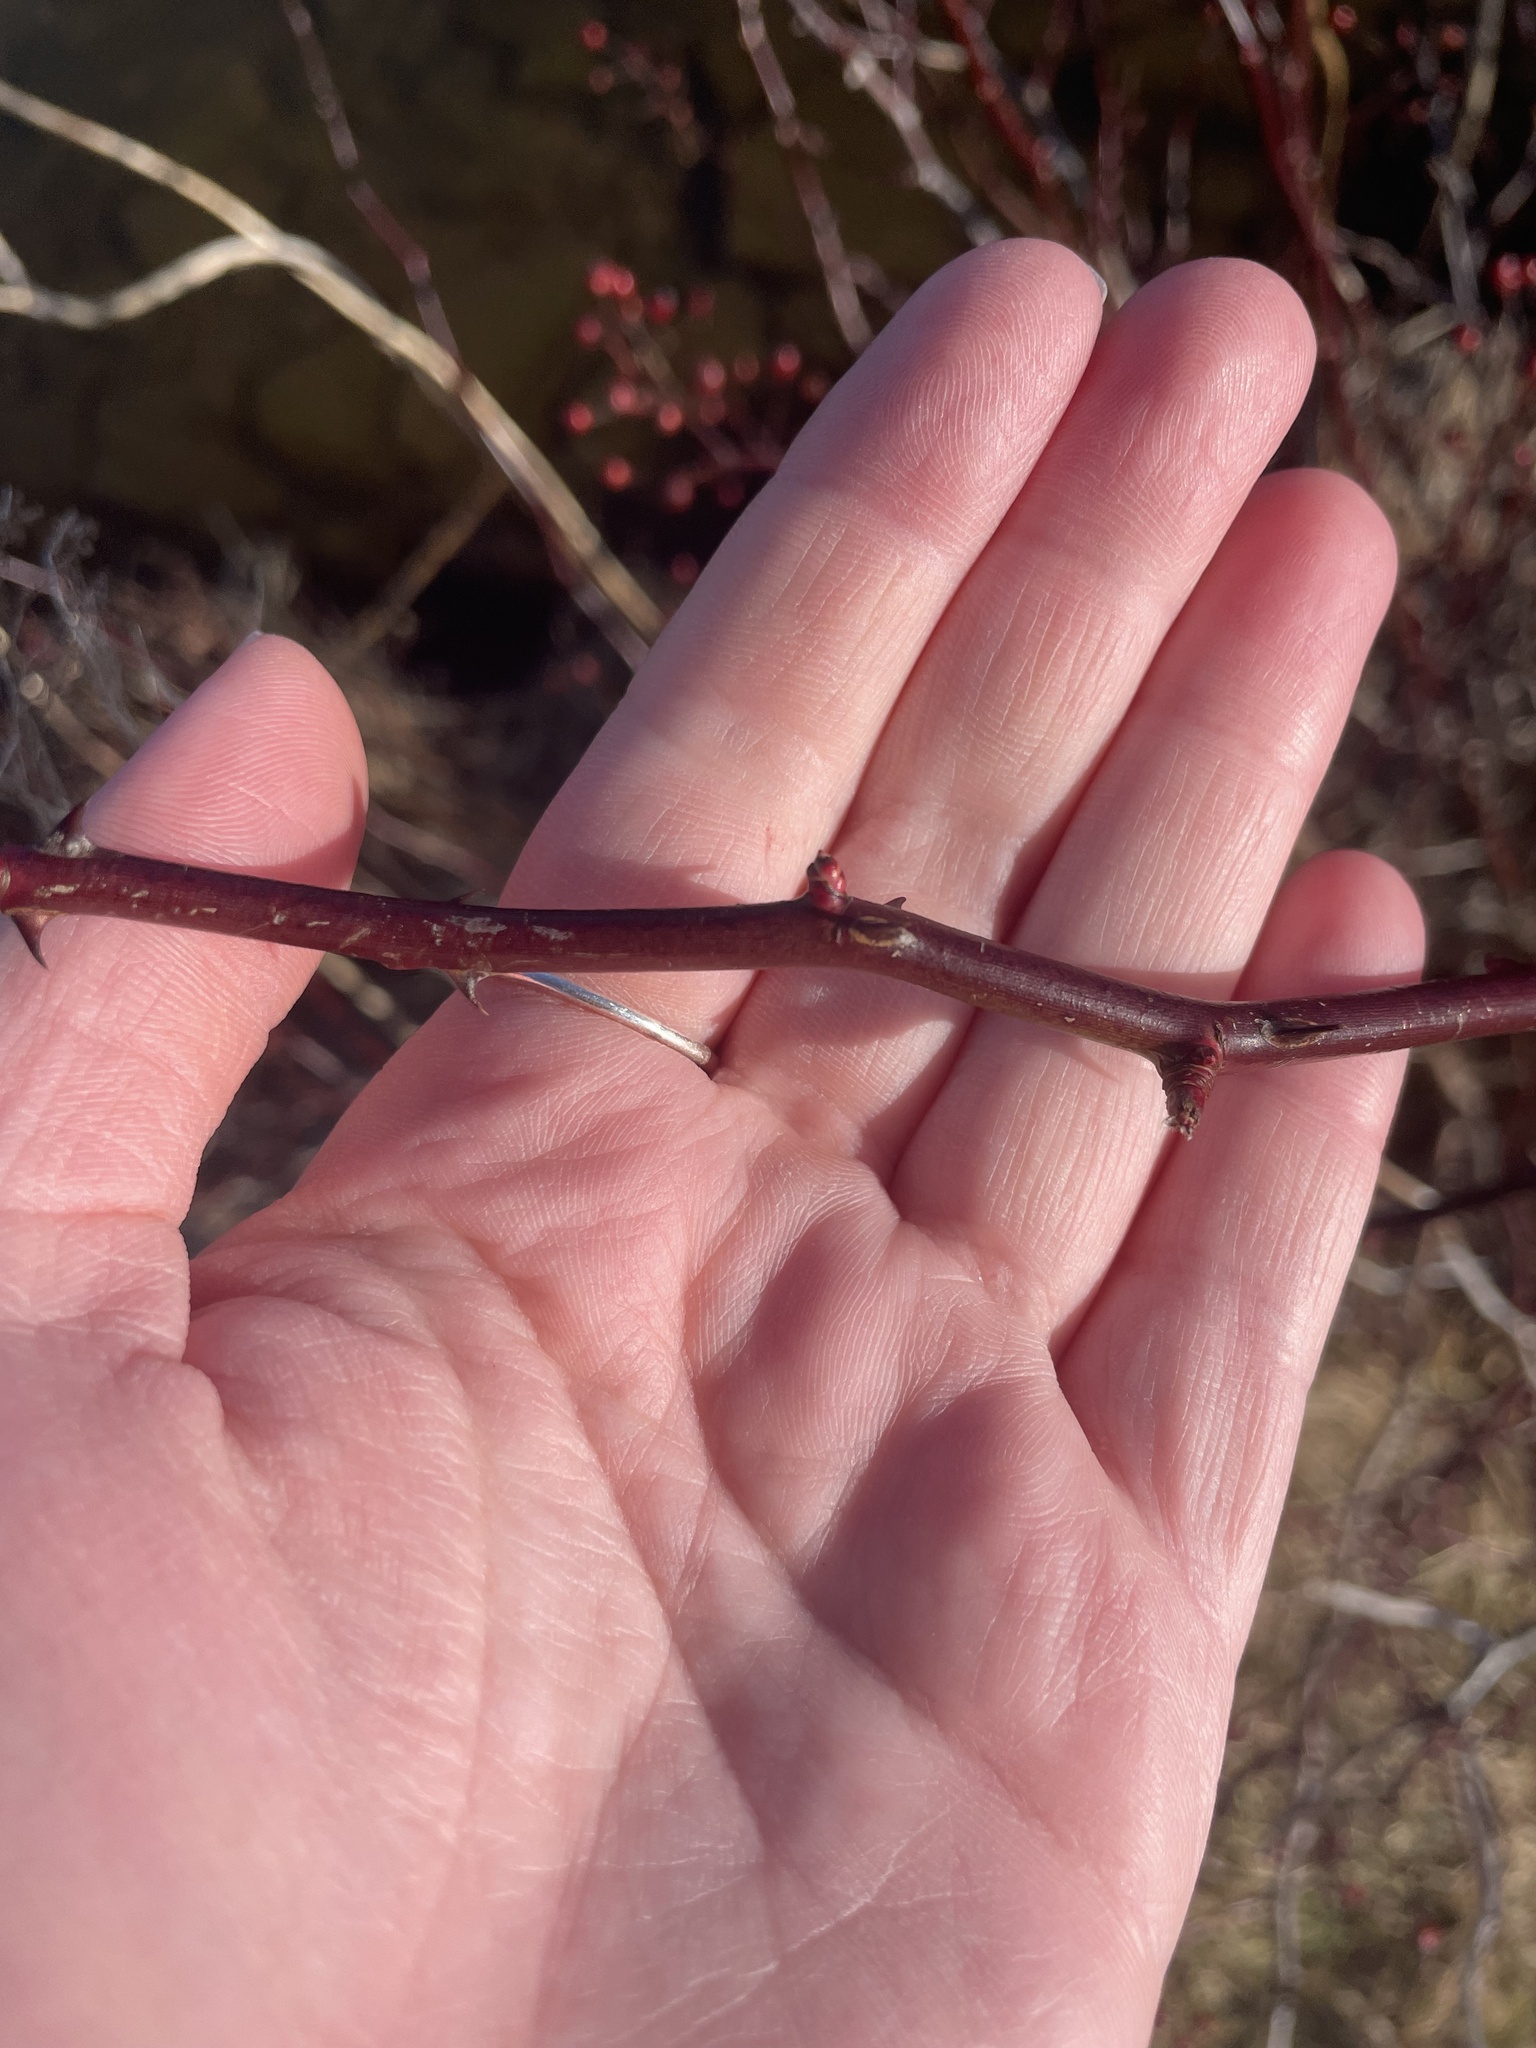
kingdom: Plantae
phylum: Tracheophyta
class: Magnoliopsida
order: Rosales
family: Rosaceae
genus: Rosa
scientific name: Rosa multiflora
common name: Multiflora rose
